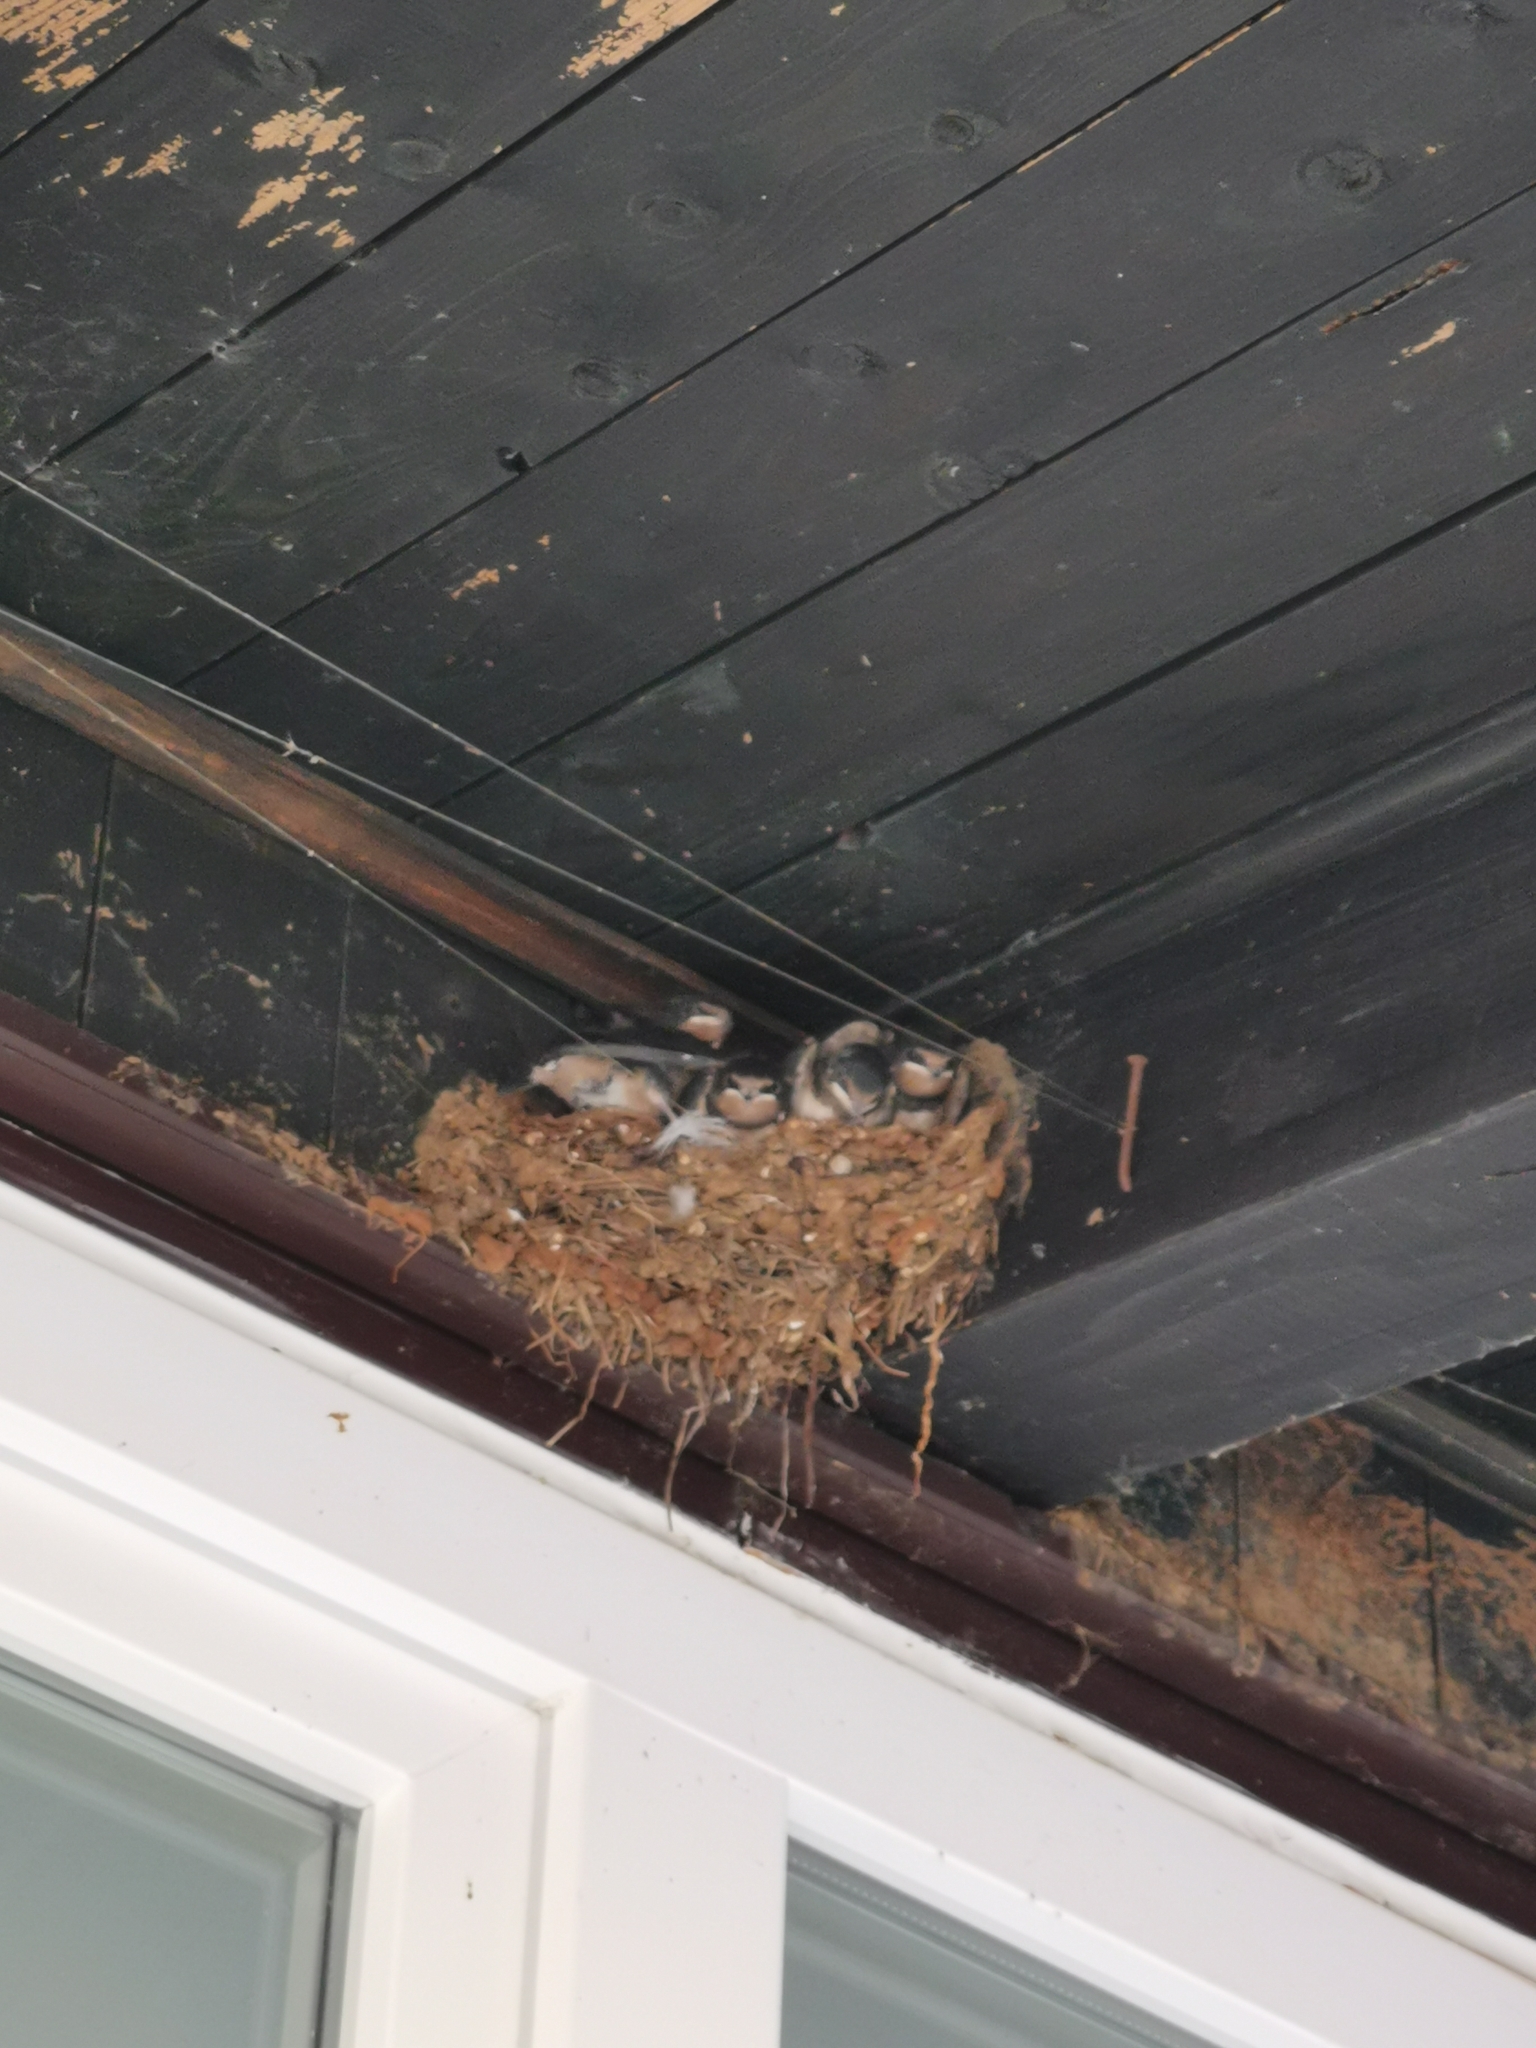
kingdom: Animalia
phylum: Chordata
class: Aves
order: Passeriformes
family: Hirundinidae
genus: Hirundo
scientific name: Hirundo rustica
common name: Barn swallow
